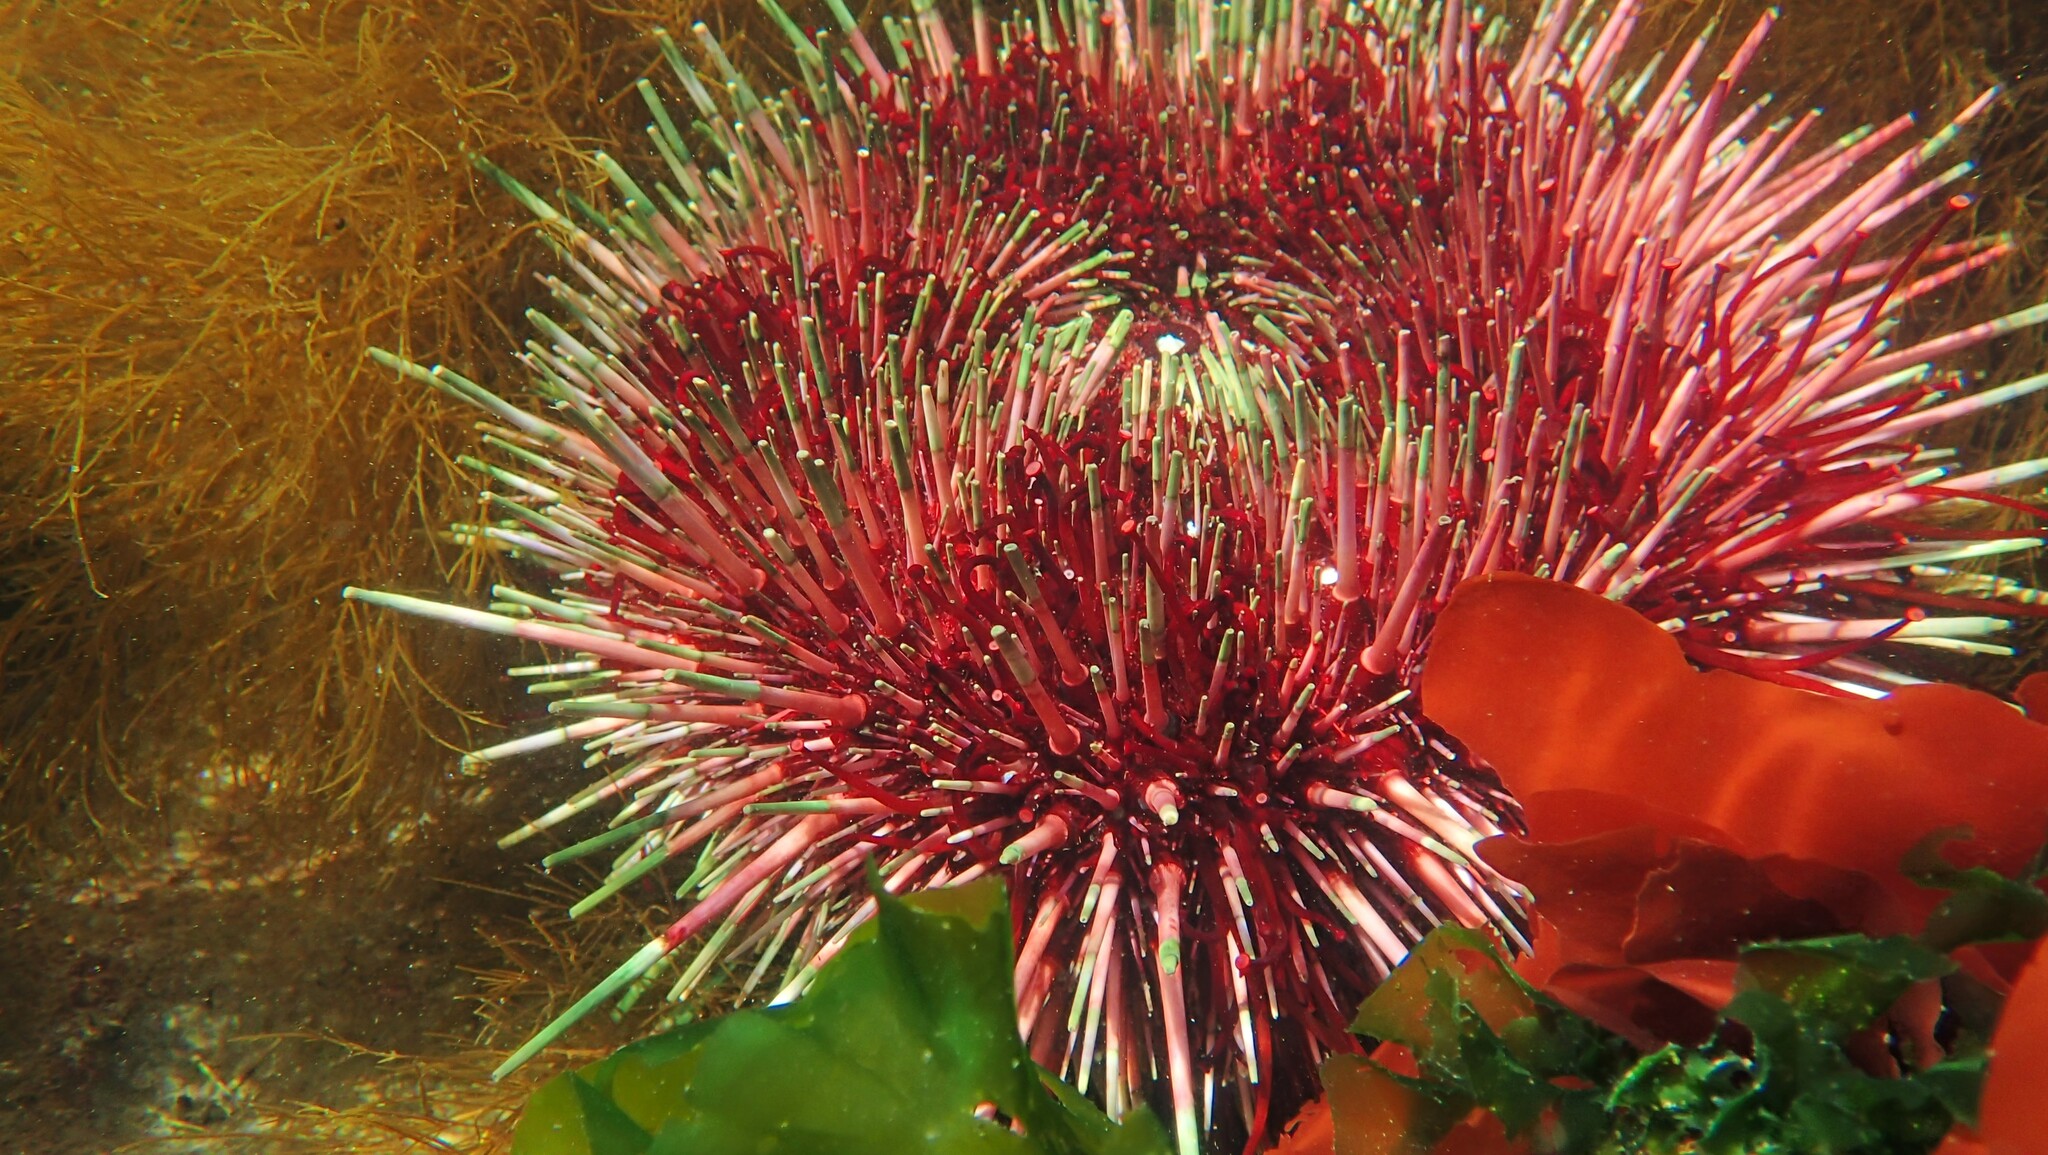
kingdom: Animalia
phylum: Echinodermata
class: Echinoidea
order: Camarodonta
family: Strongylocentrotidae
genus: Mesocentrotus
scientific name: Mesocentrotus franciscanus
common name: Red sea urchin
